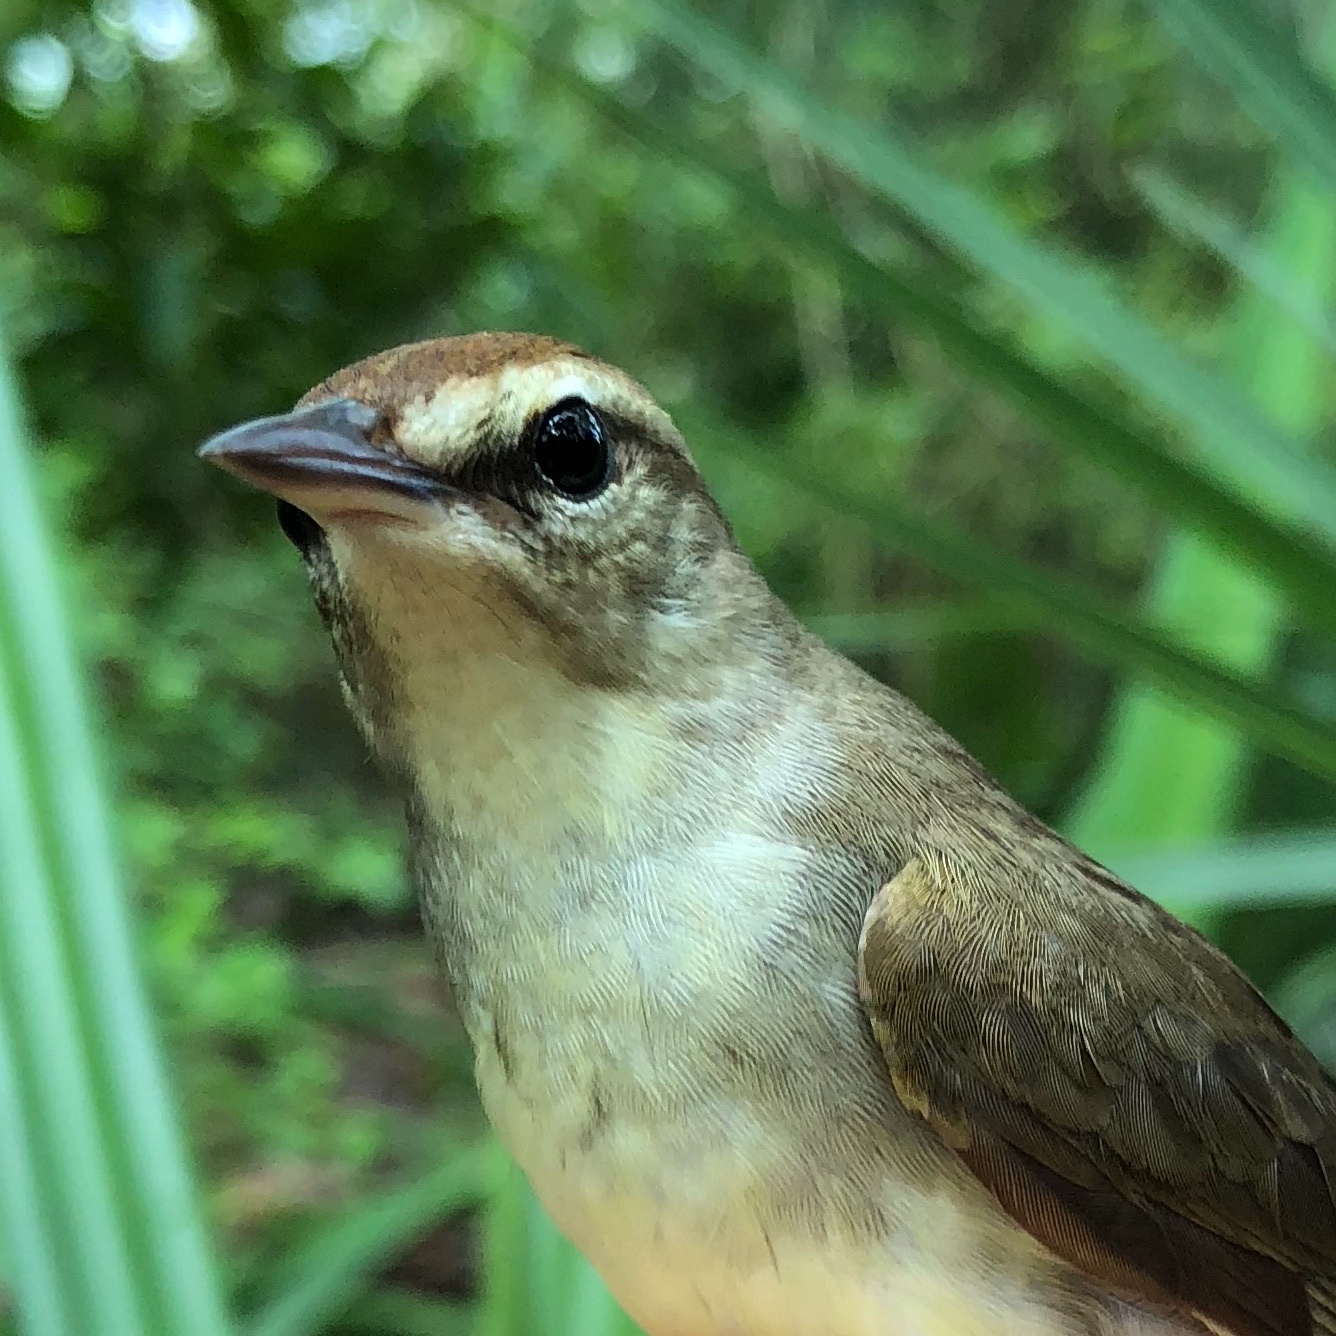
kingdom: Animalia
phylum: Chordata
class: Aves
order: Passeriformes
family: Parulidae
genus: Limnothlypis
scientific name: Limnothlypis swainsonii
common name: Swainson's warbler
